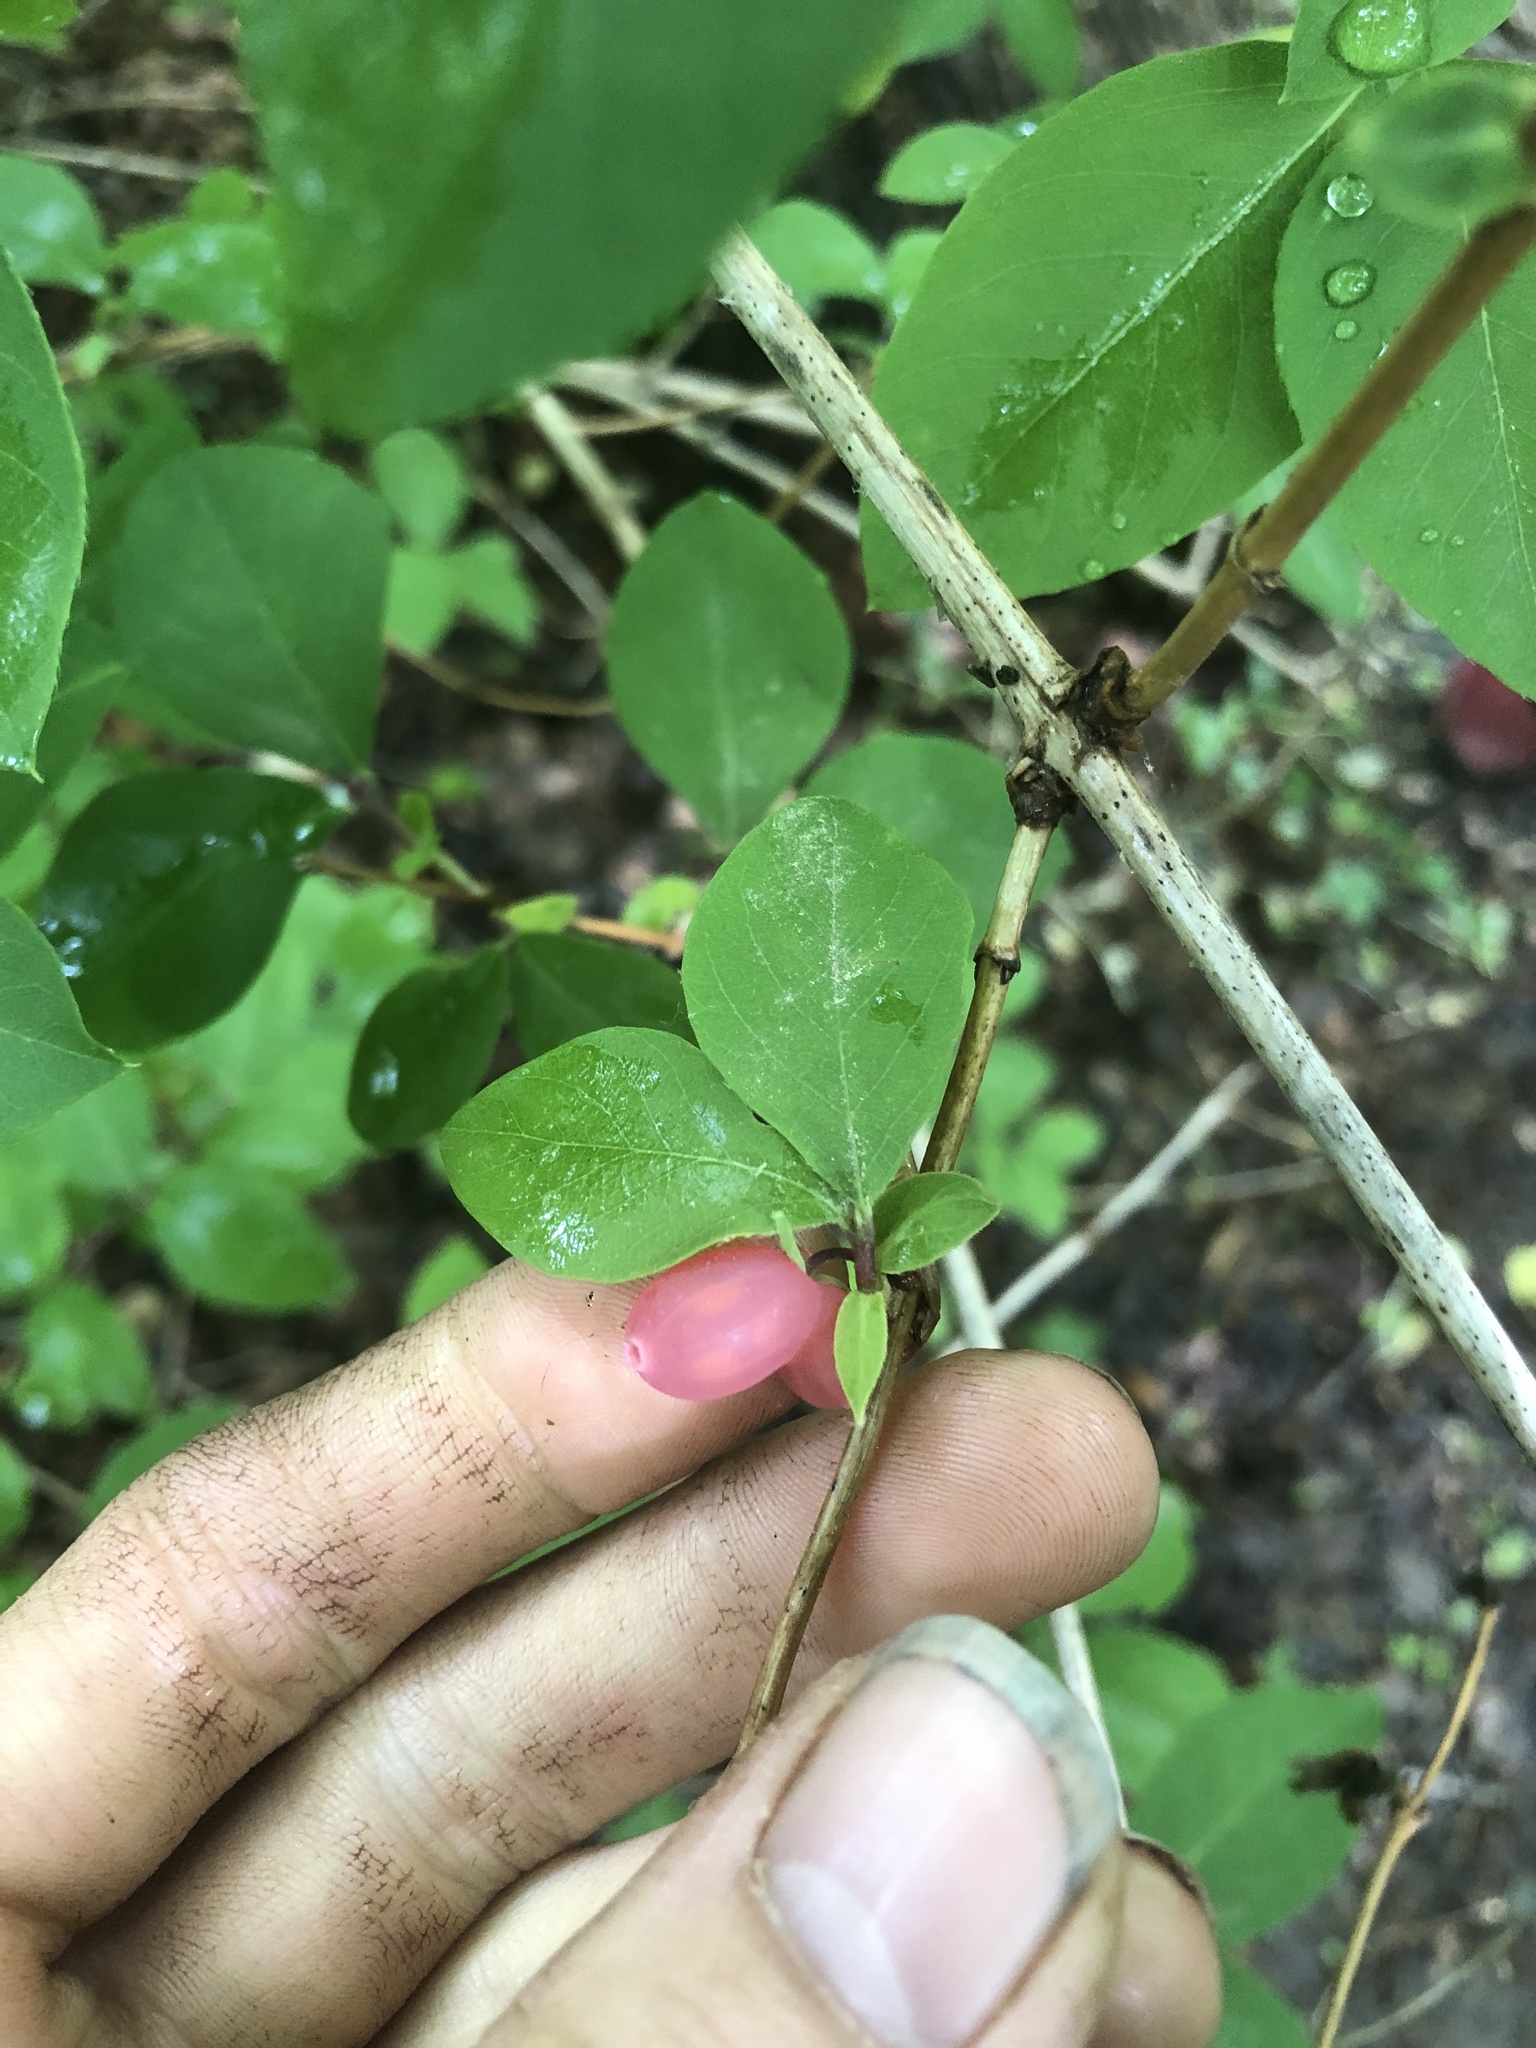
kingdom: Plantae
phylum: Tracheophyta
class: Magnoliopsida
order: Dipsacales
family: Caprifoliaceae
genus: Lonicera
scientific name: Lonicera fragrantissima
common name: Fragrant honeysuckle
